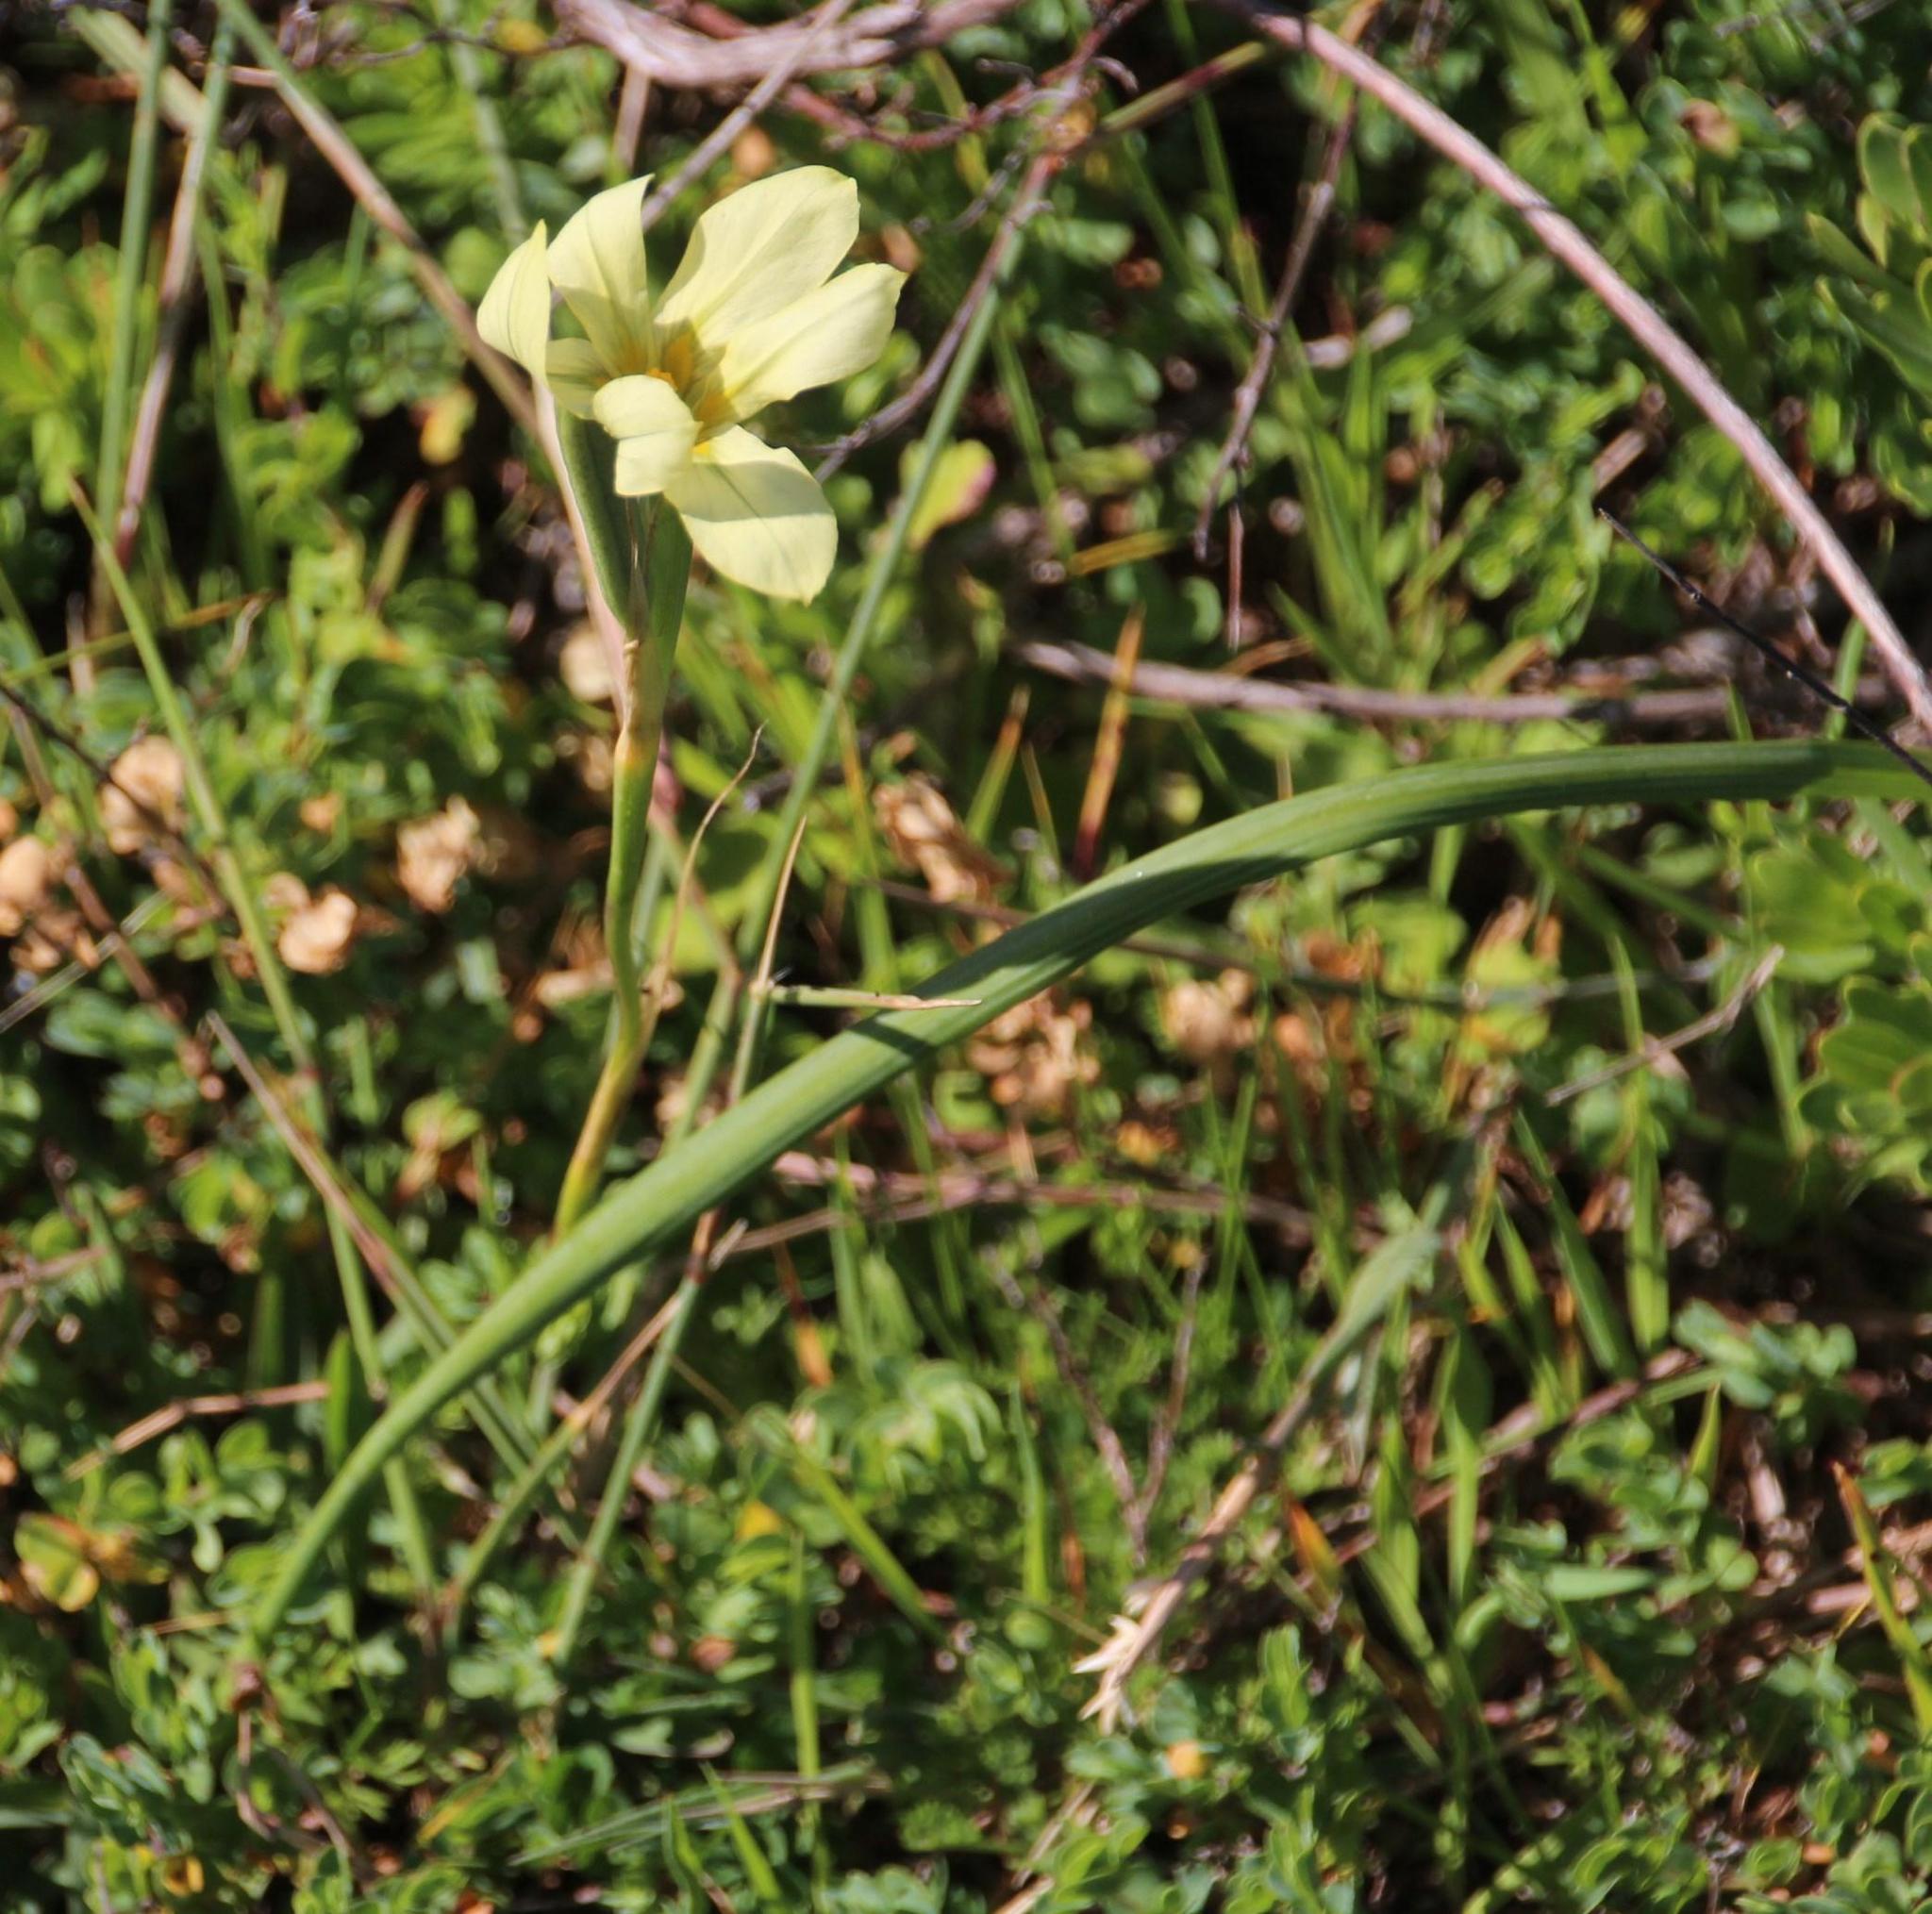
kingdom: Plantae
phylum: Tracheophyta
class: Liliopsida
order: Asparagales
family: Iridaceae
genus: Moraea
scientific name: Moraea collina
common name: Cape-tulip
